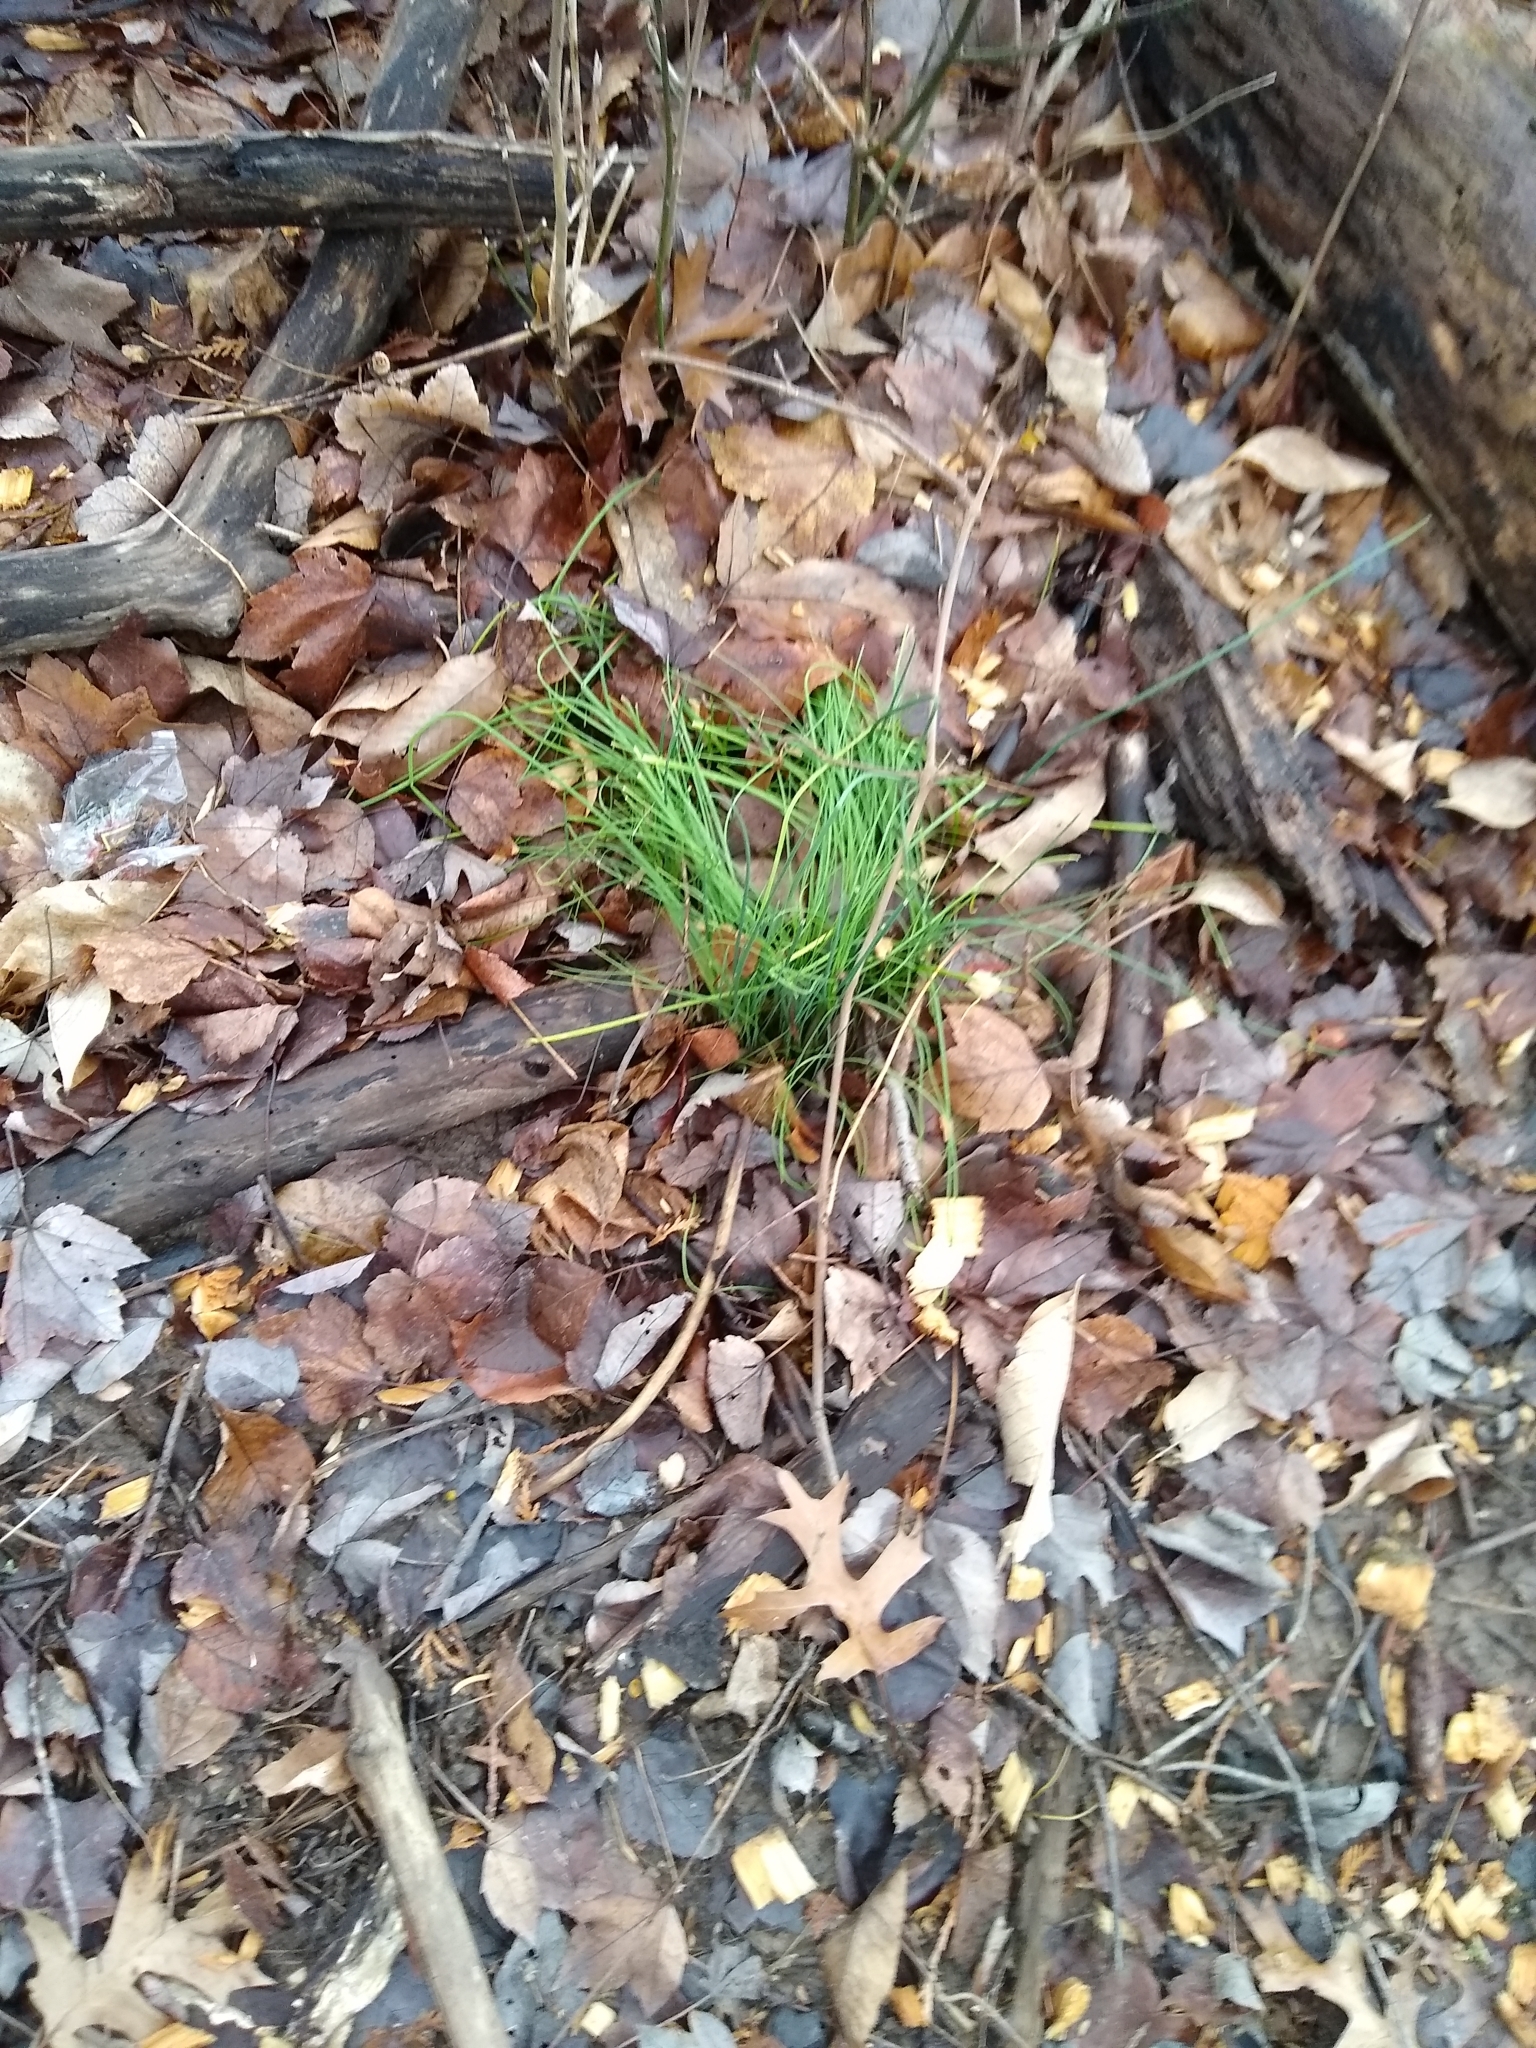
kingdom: Plantae
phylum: Tracheophyta
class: Liliopsida
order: Asparagales
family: Amaryllidaceae
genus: Allium
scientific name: Allium vineale
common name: Crow garlic
